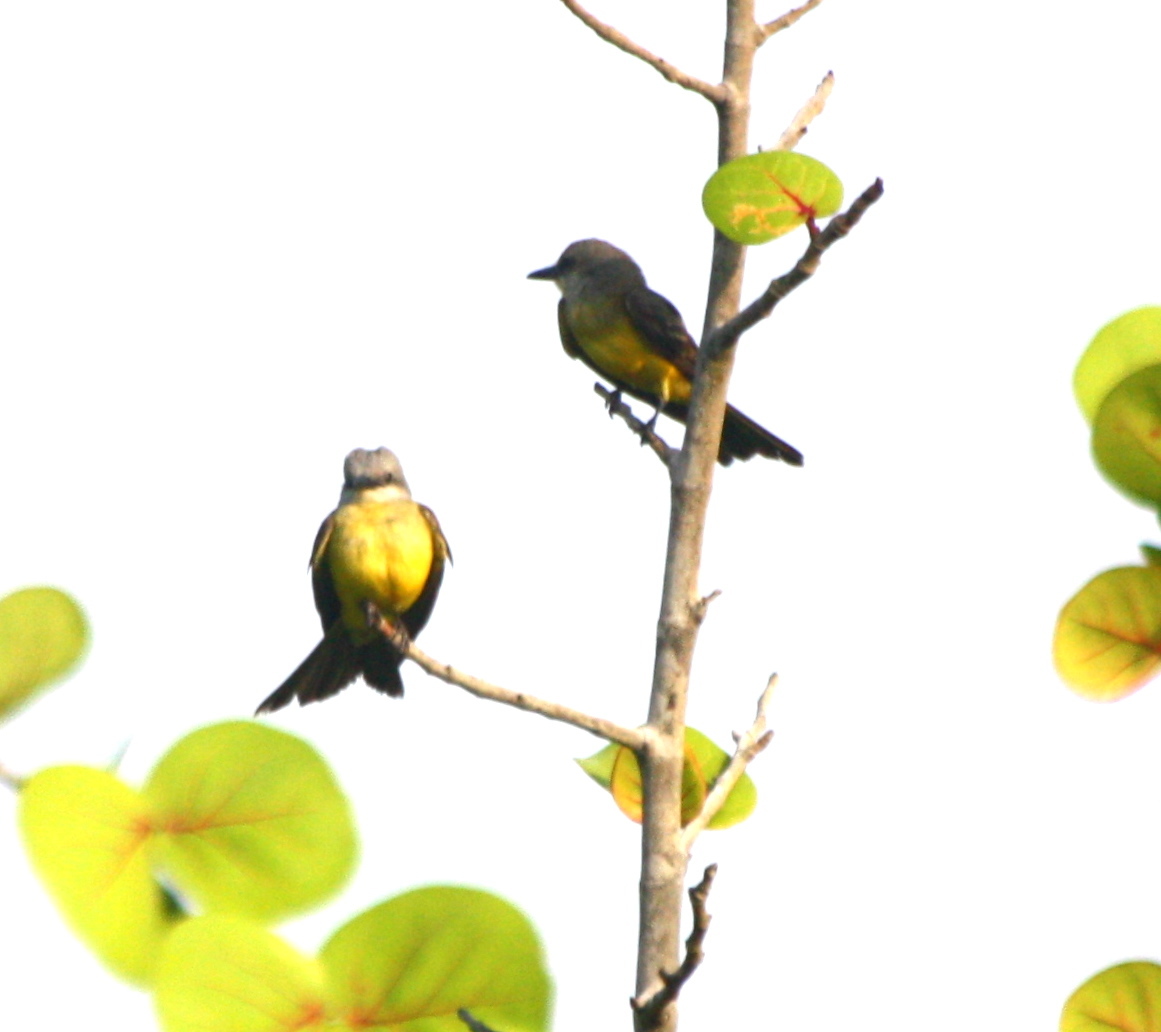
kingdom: Animalia
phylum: Chordata
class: Aves
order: Passeriformes
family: Tyrannidae
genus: Tyrannus
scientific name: Tyrannus melancholicus
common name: Tropical kingbird
